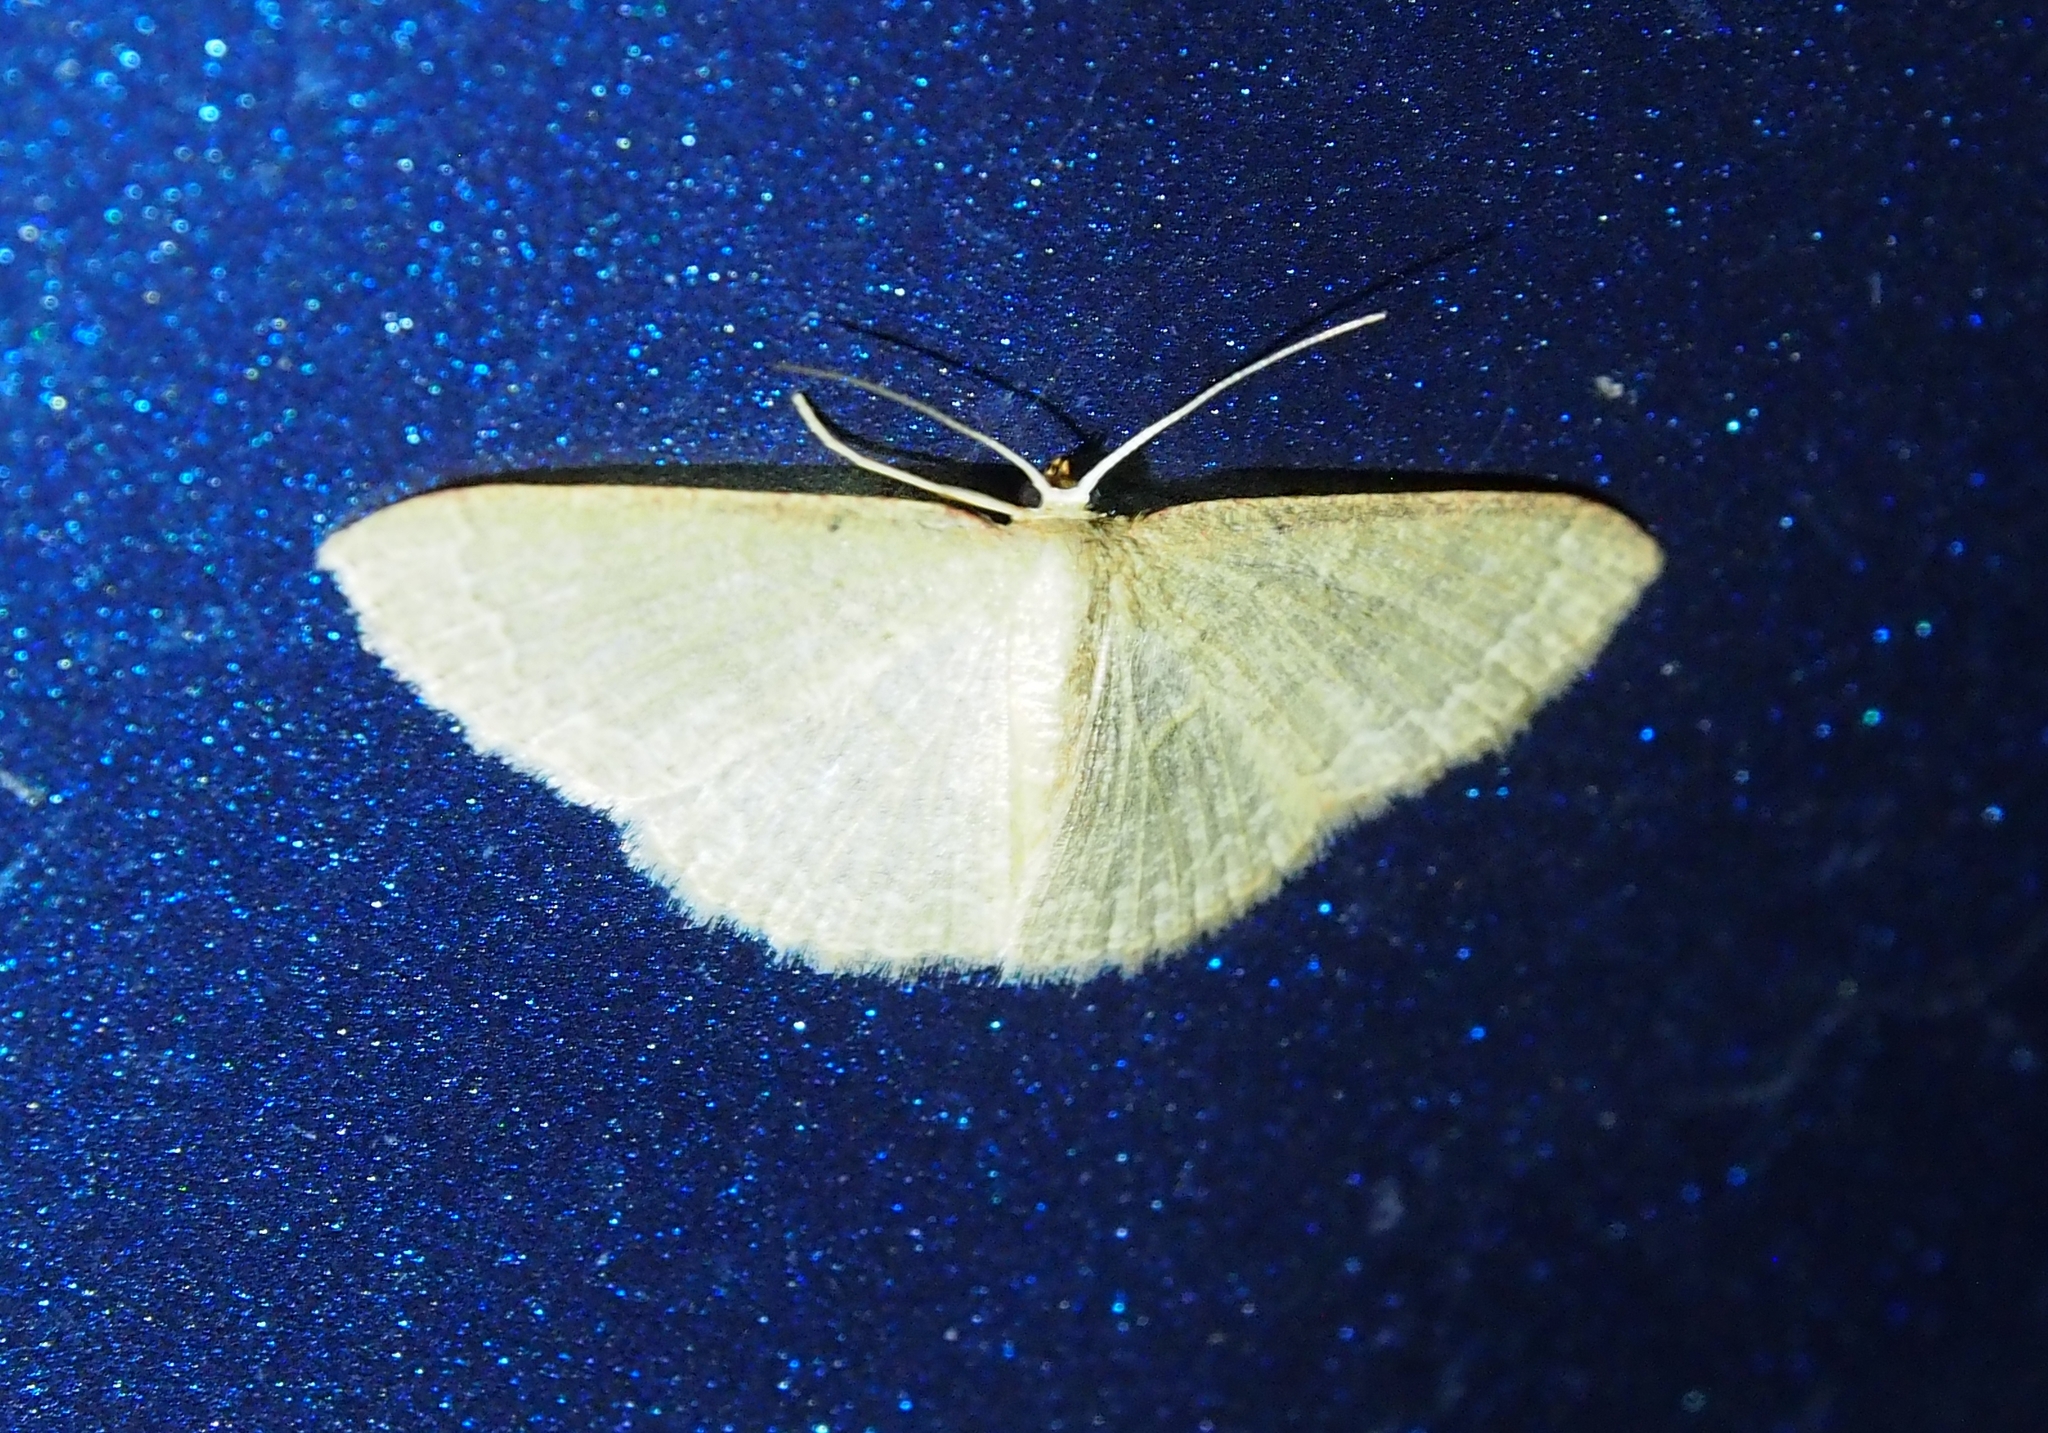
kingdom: Animalia
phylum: Arthropoda
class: Insecta
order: Lepidoptera
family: Geometridae
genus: Pleuroprucha
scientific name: Pleuroprucha insulsaria
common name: Common tan wave
